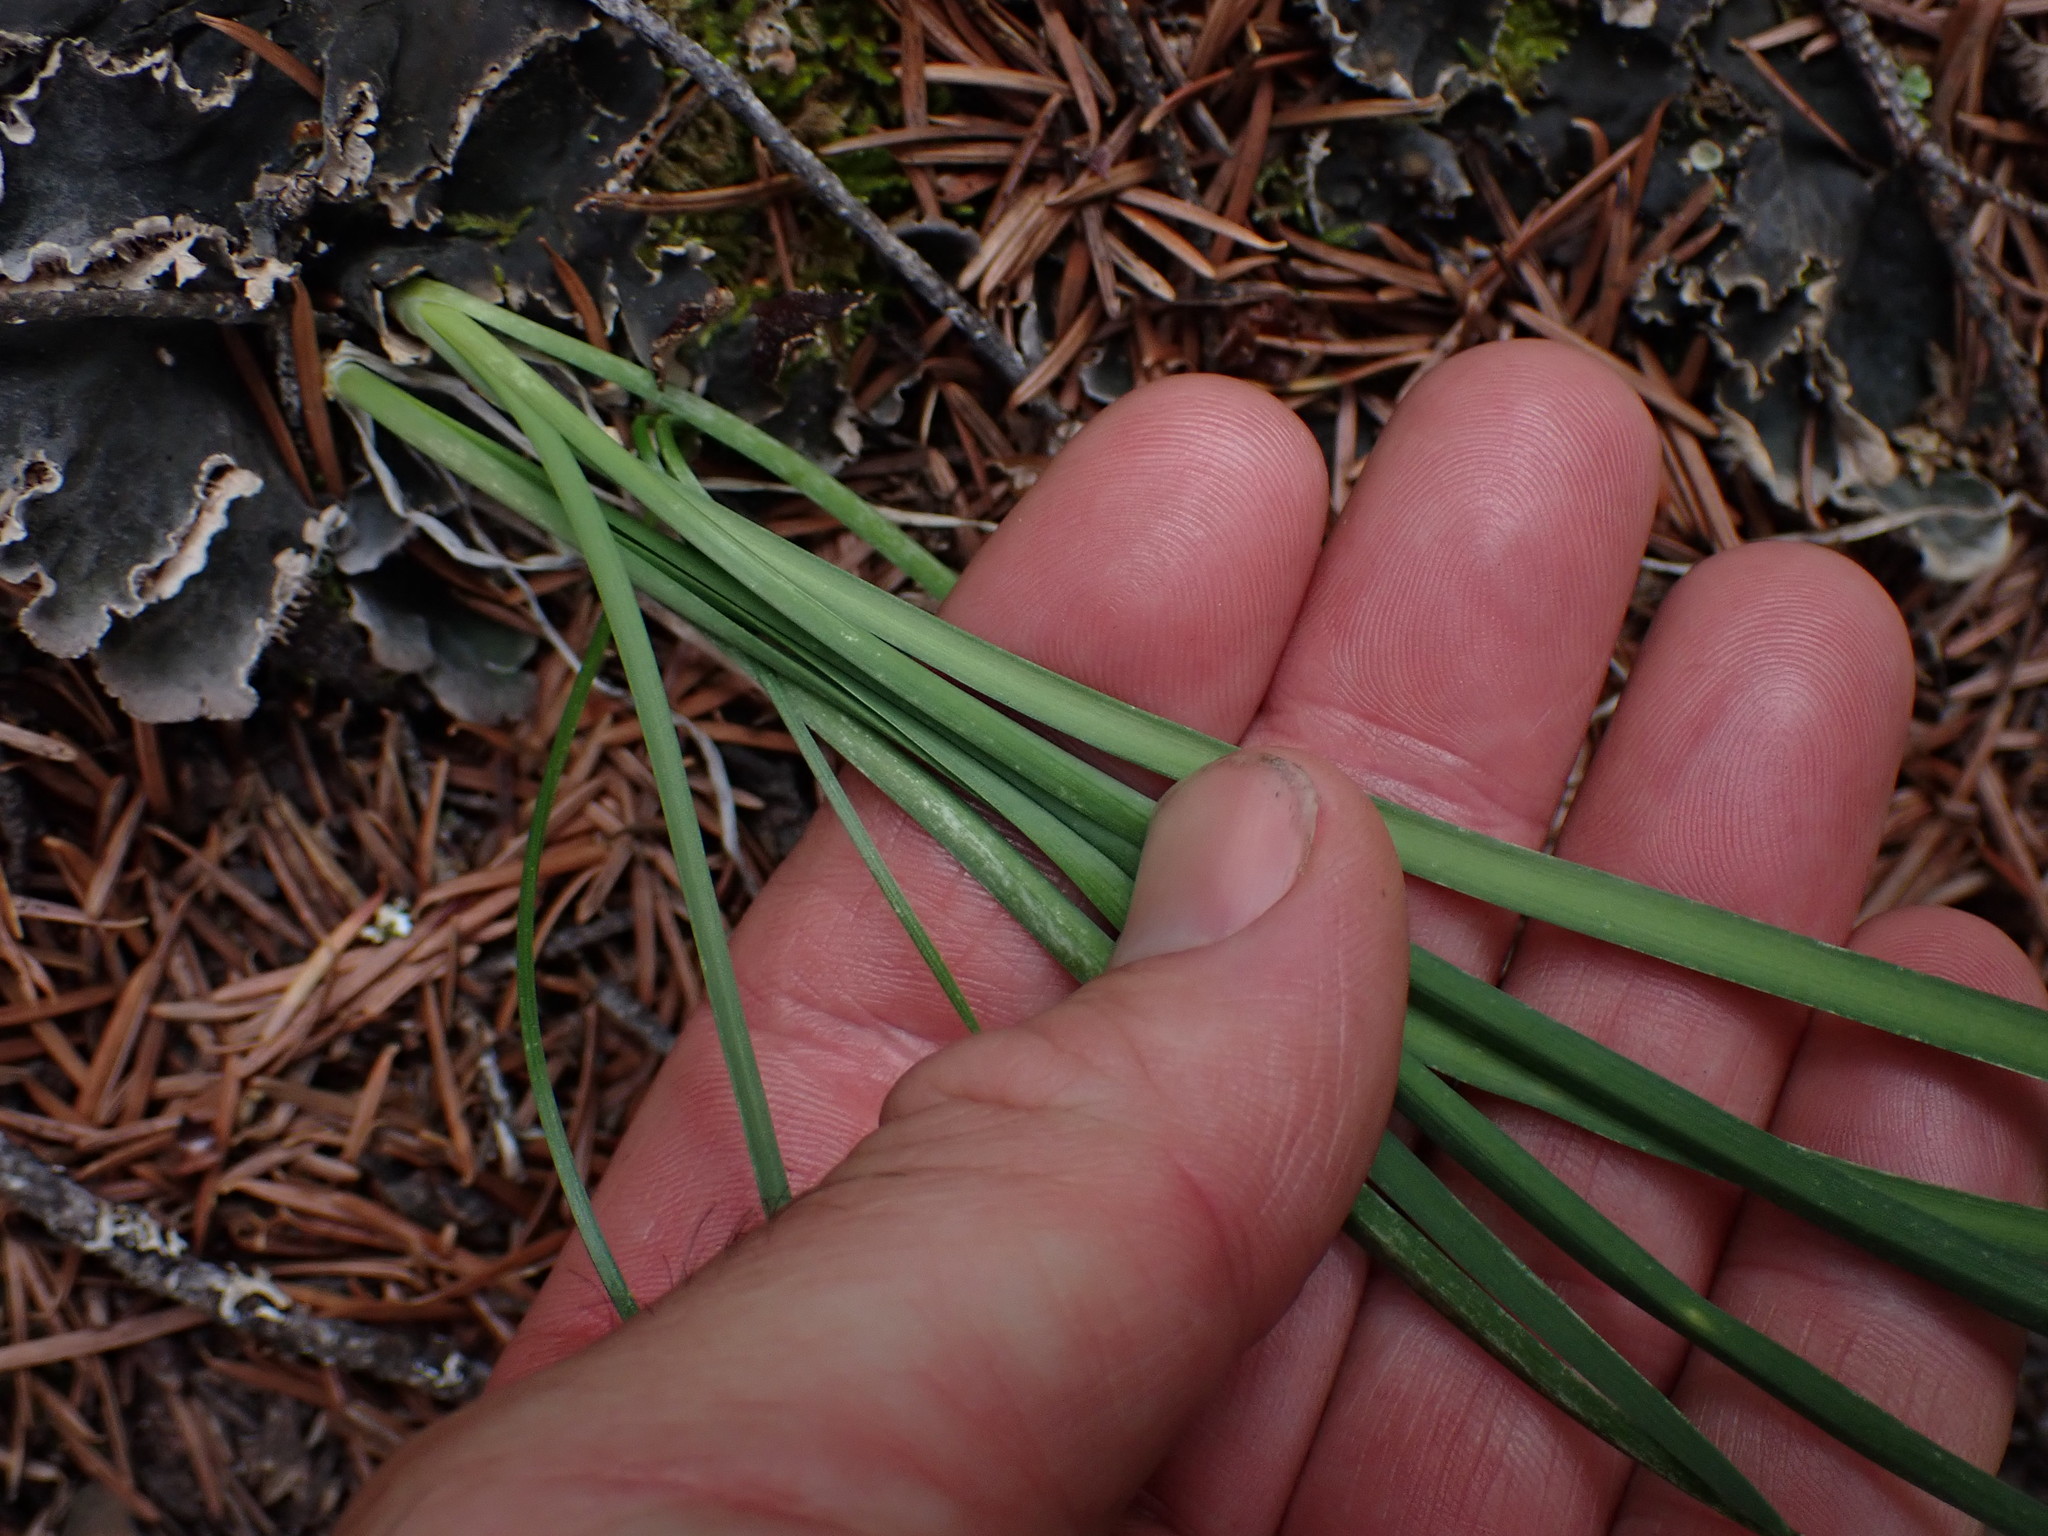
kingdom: Plantae
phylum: Tracheophyta
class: Liliopsida
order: Asparagales
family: Amaryllidaceae
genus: Allium
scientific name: Allium cernuum
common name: Nodding onion
